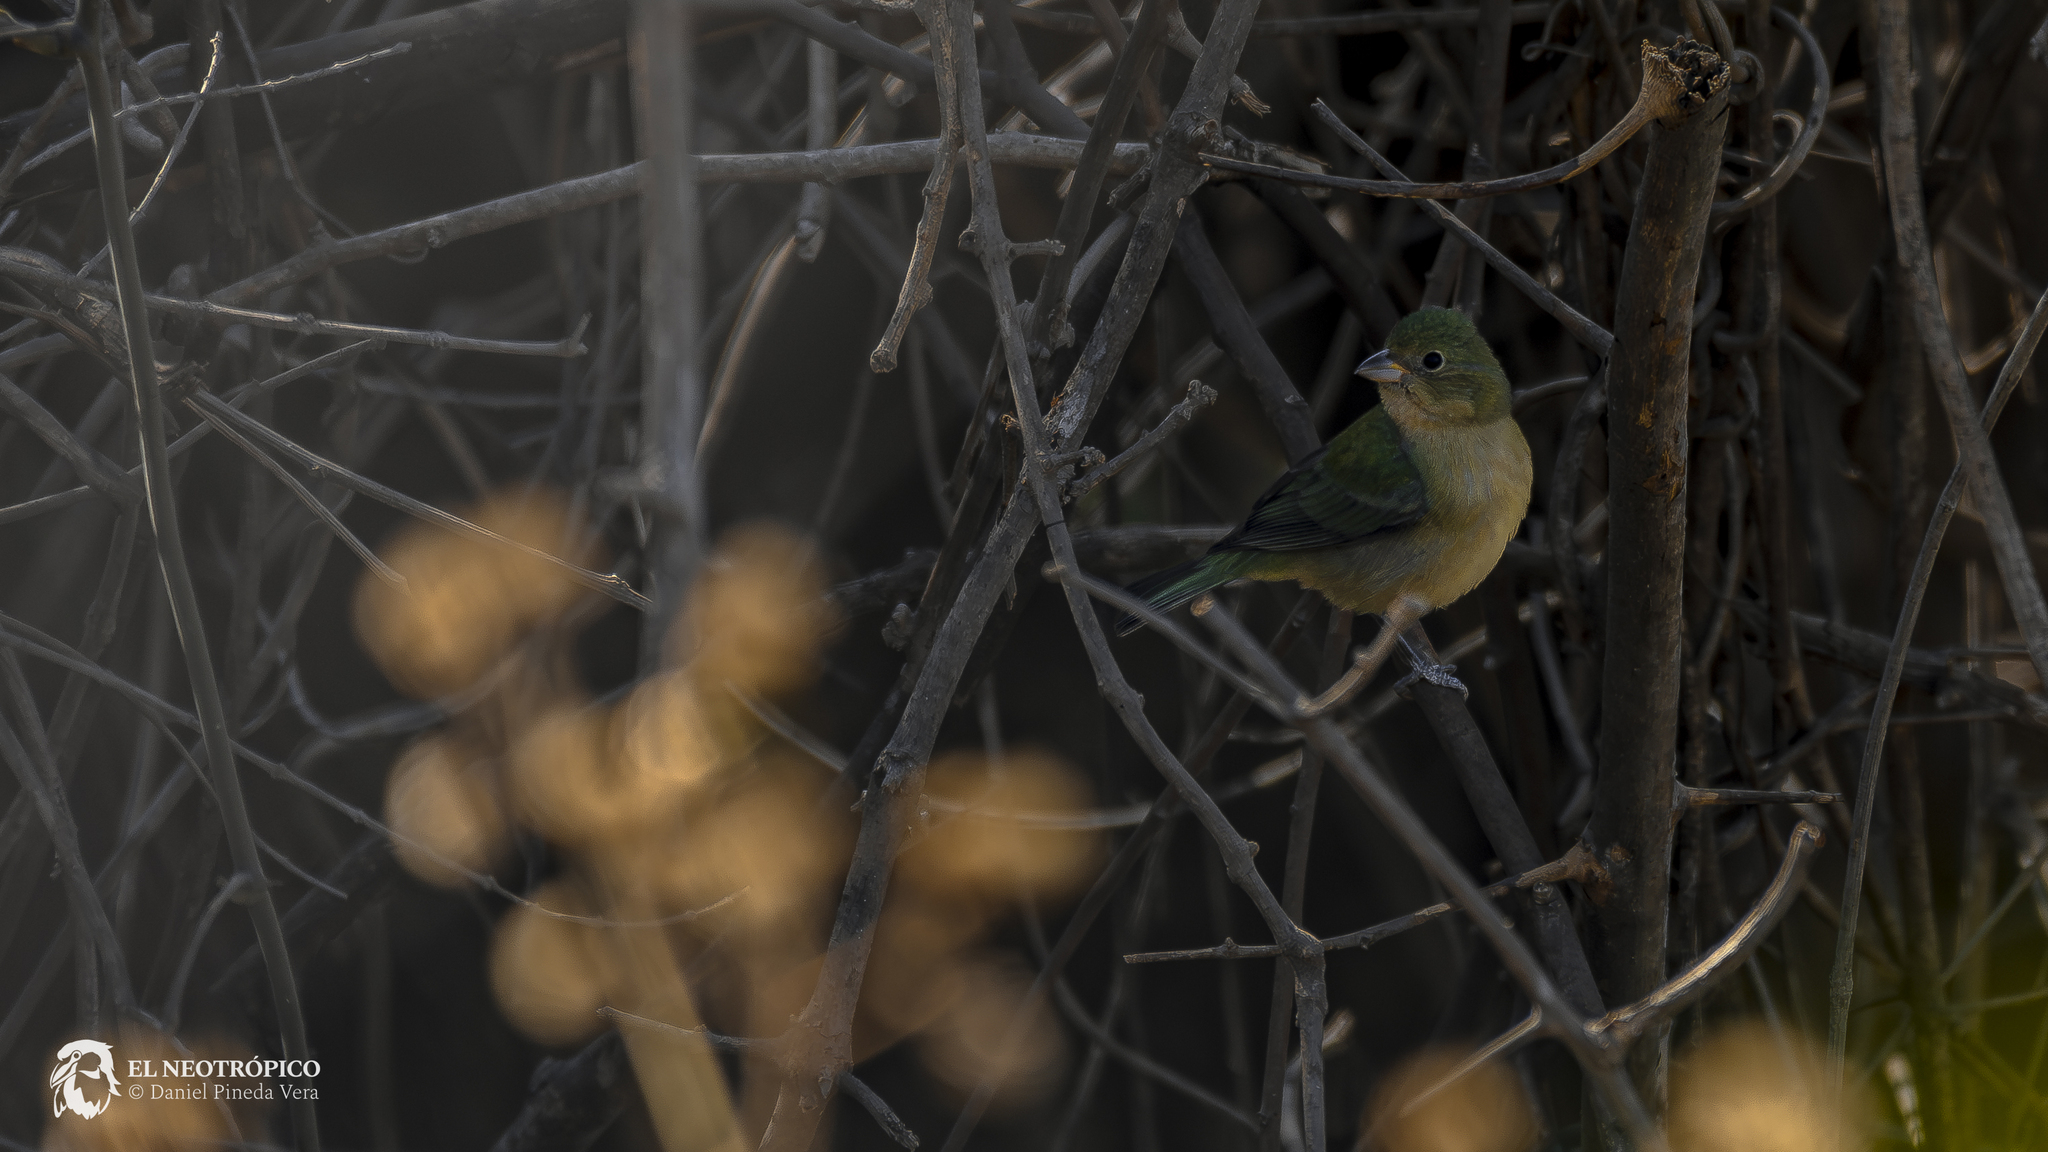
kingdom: Animalia
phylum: Chordata
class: Aves
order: Passeriformes
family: Cardinalidae
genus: Passerina
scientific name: Passerina ciris
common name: Painted bunting
